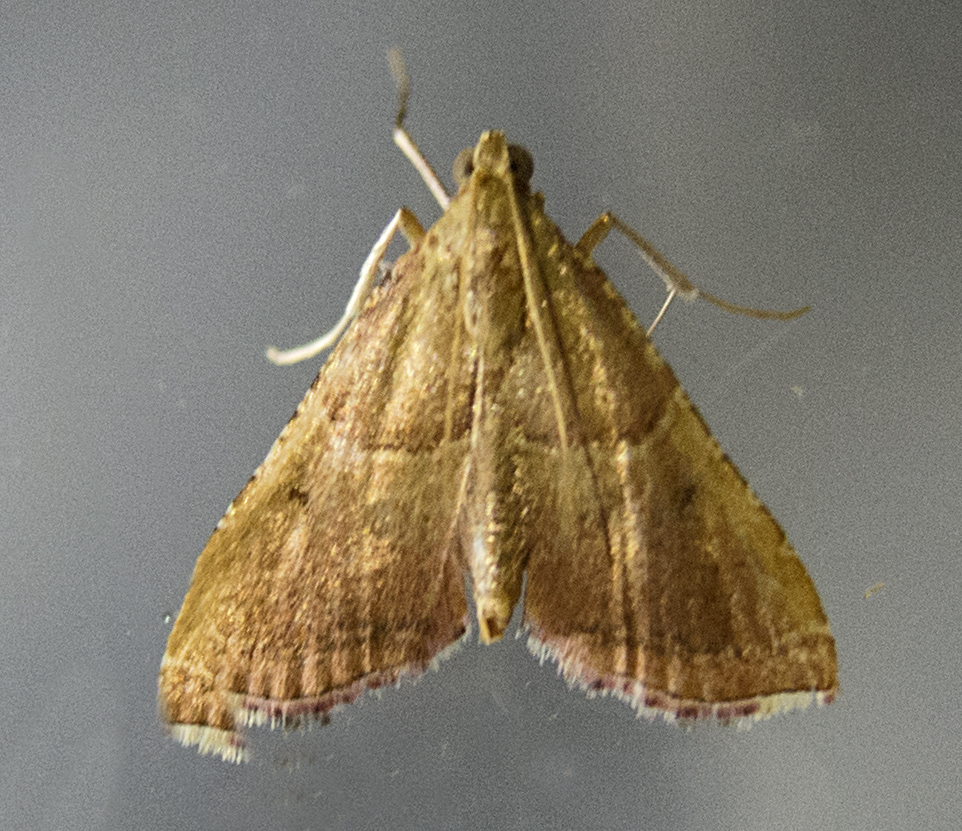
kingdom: Animalia
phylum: Arthropoda
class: Insecta
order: Lepidoptera
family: Pyralidae
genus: Endotricha
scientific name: Endotricha flammealis
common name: Rosy tabby
